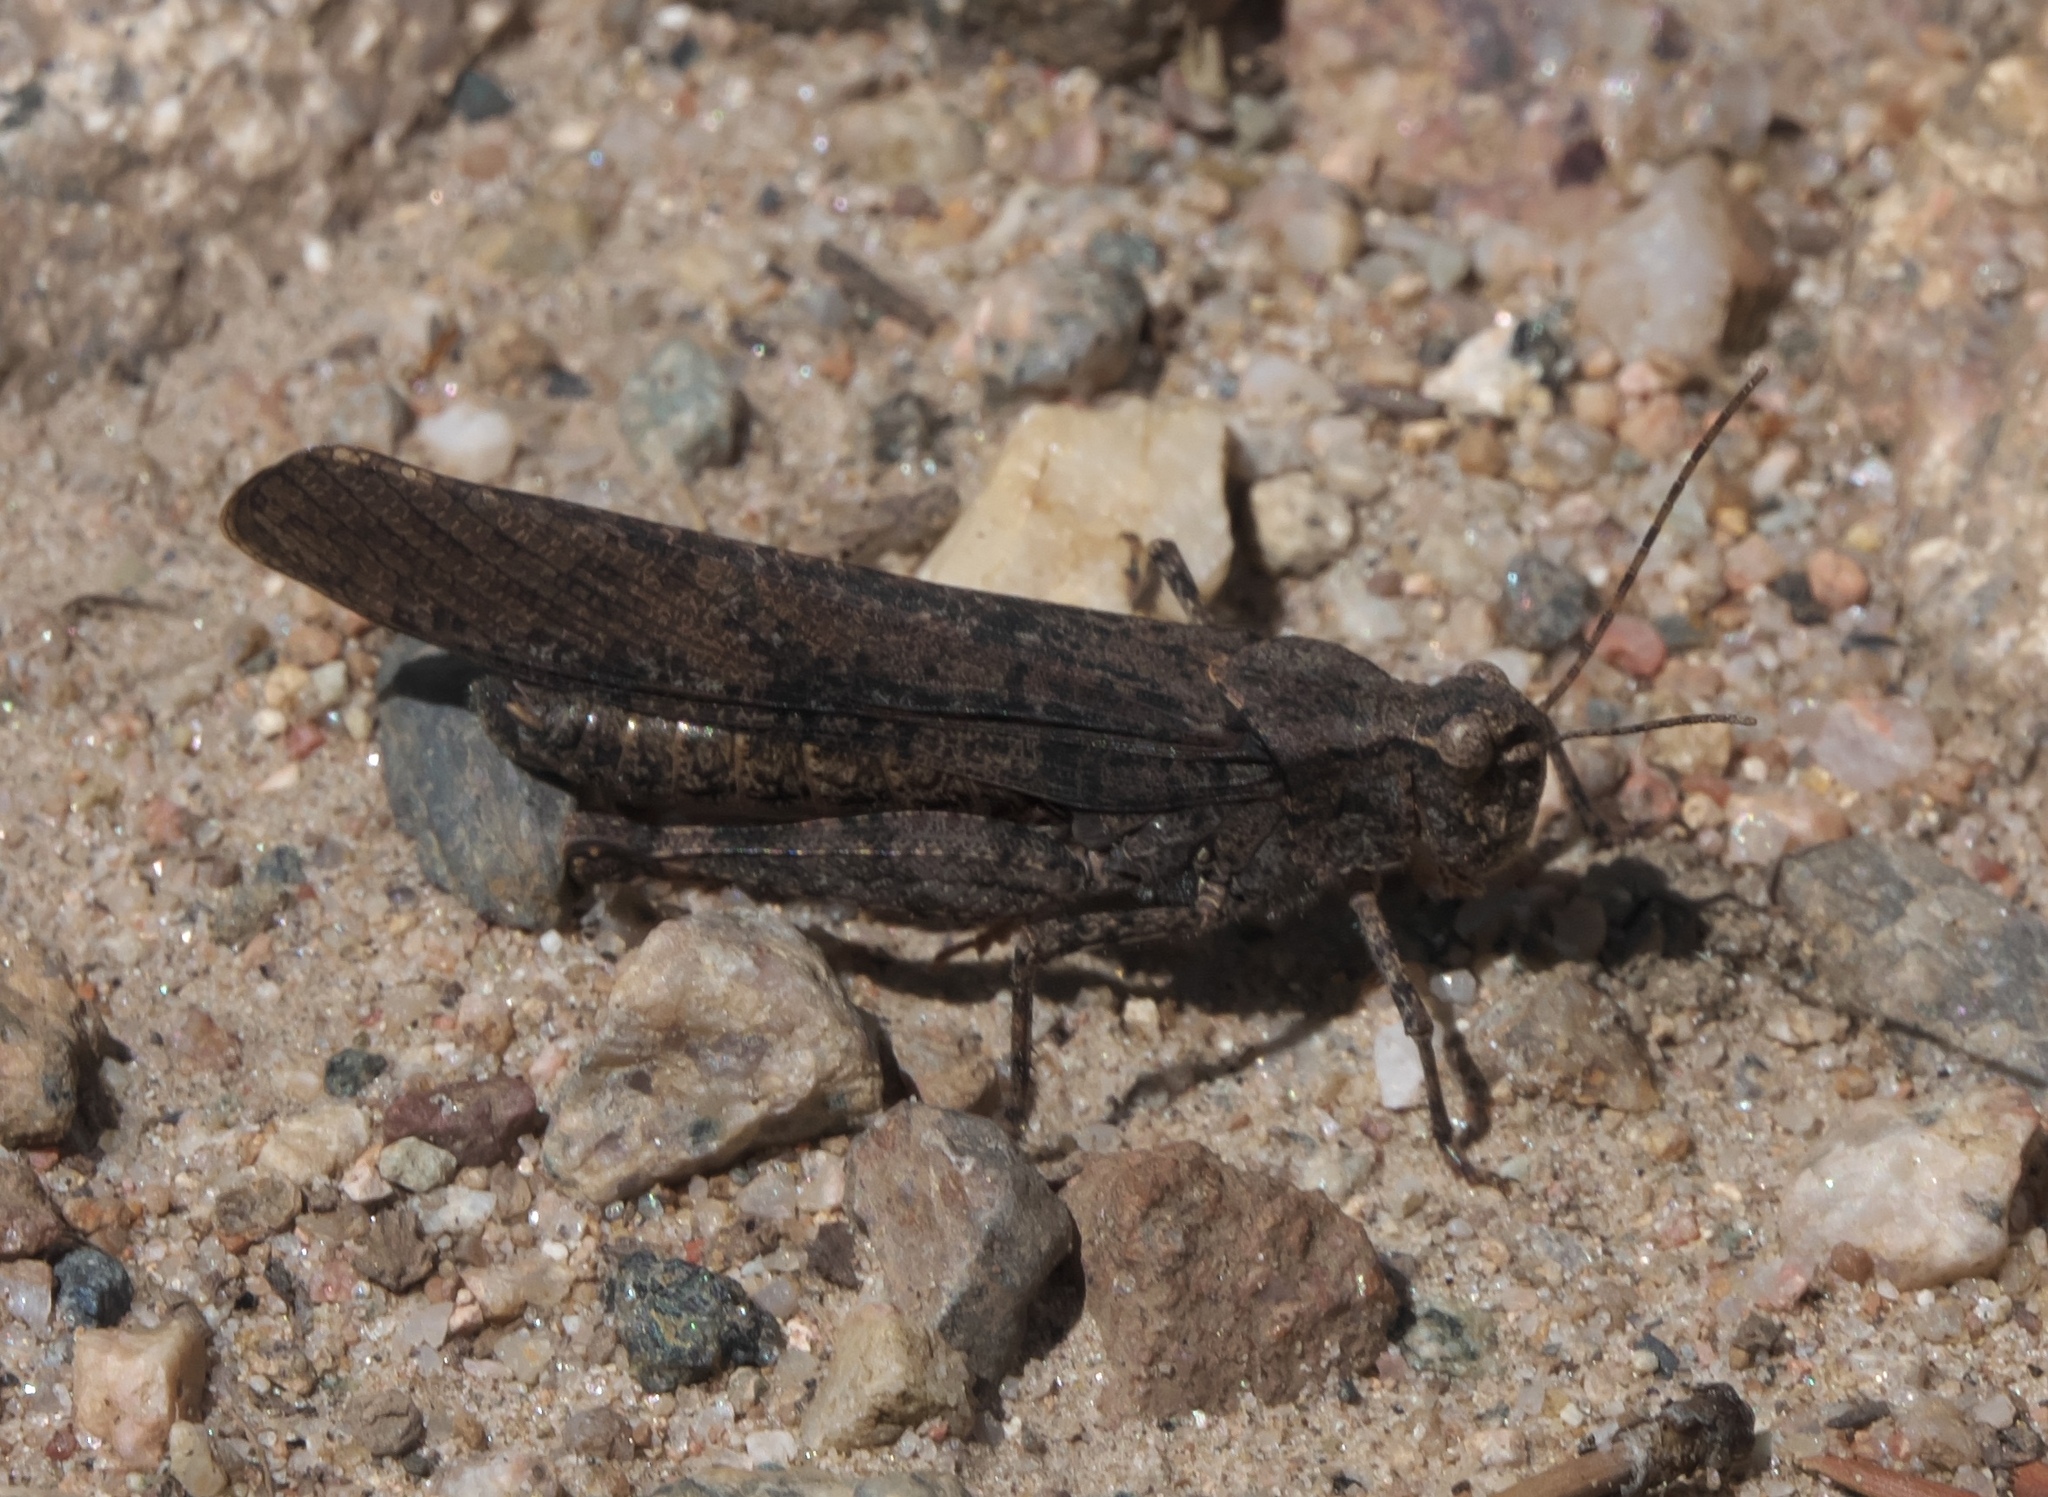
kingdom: Animalia
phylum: Arthropoda
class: Insecta
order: Orthoptera
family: Acrididae
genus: Trimerotropis
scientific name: Trimerotropis verruculata
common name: Crackling forest grasshopper
